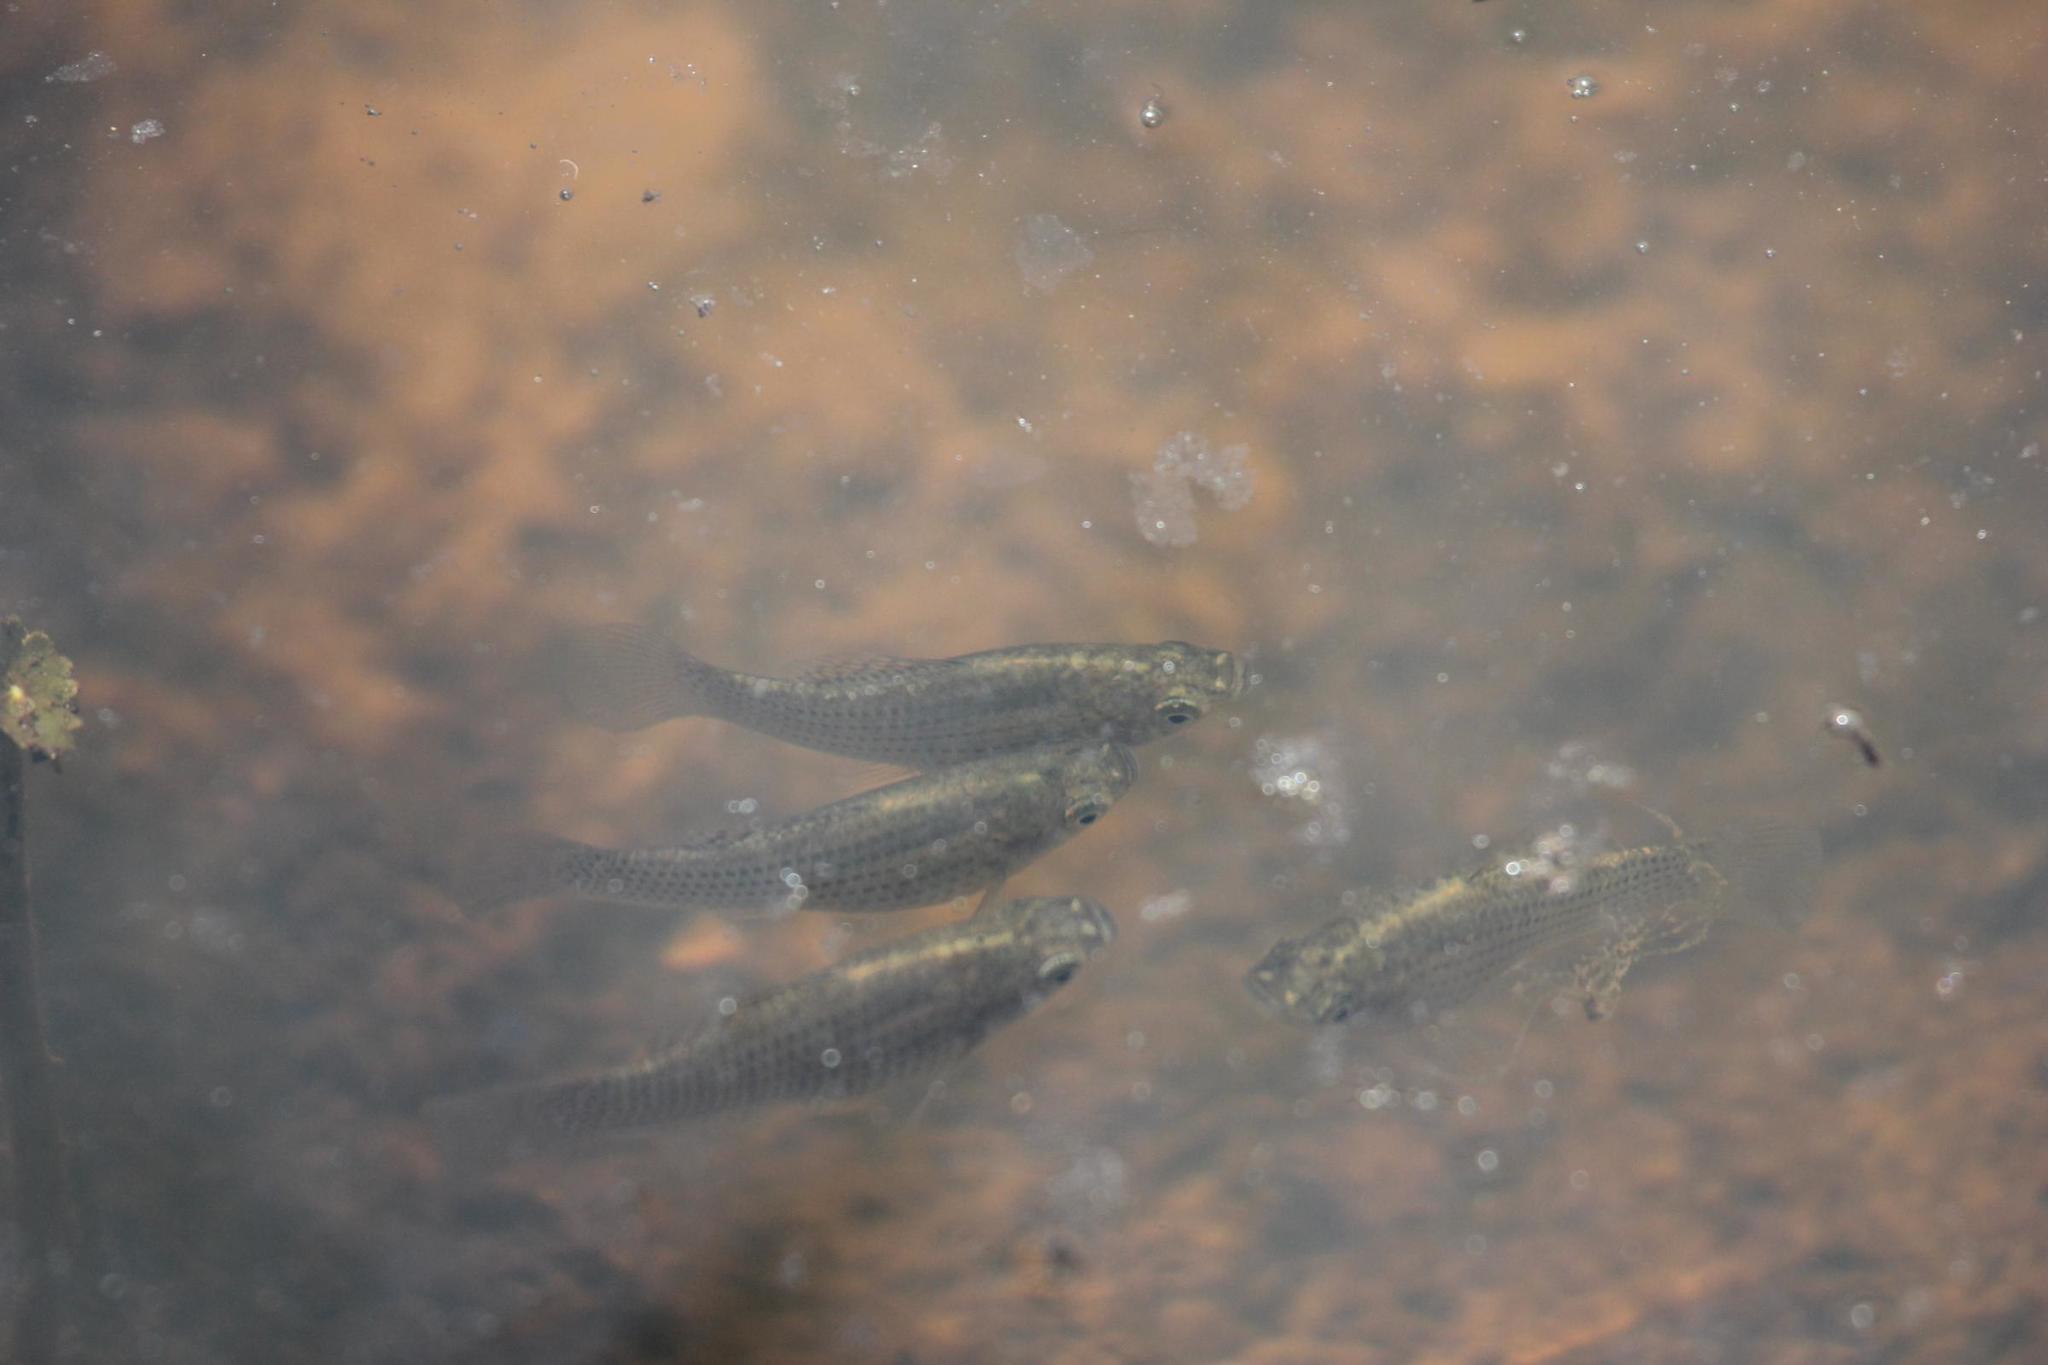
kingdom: Animalia
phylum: Chordata
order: Cyprinodontiformes
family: Poeciliidae
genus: Poecilia
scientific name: Poecilia latipinna
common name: Sailfin molly
